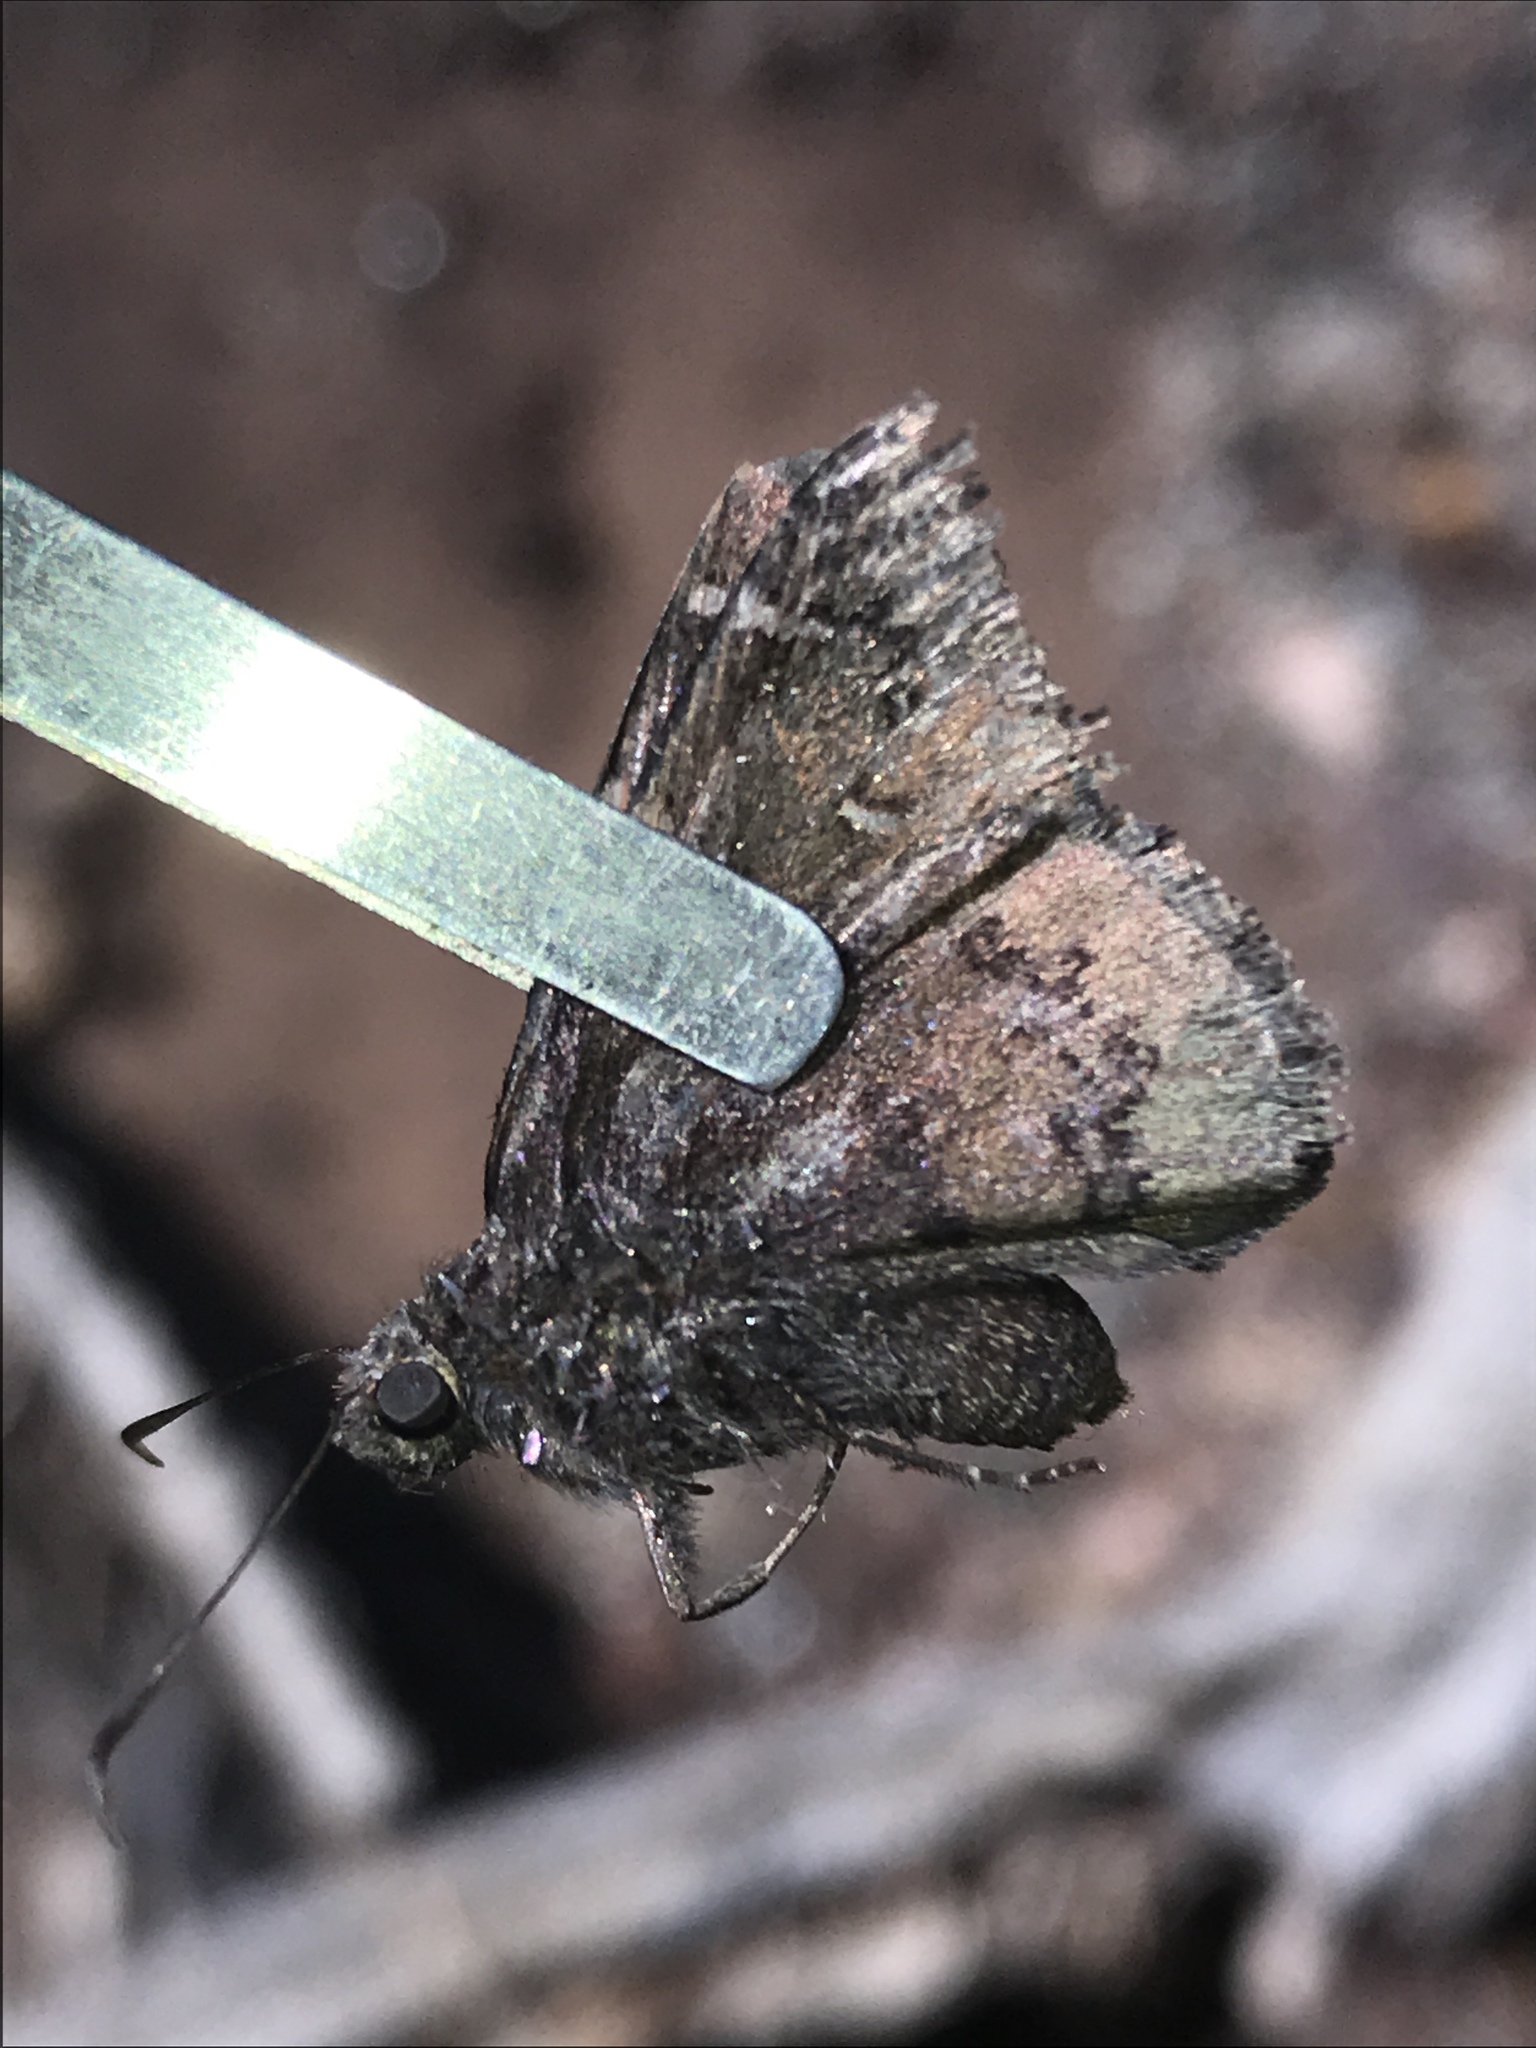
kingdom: Animalia
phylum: Arthropoda
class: Insecta
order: Lepidoptera
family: Hesperiidae
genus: Thorybes
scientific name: Thorybes pylades
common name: Northern cloudywing
